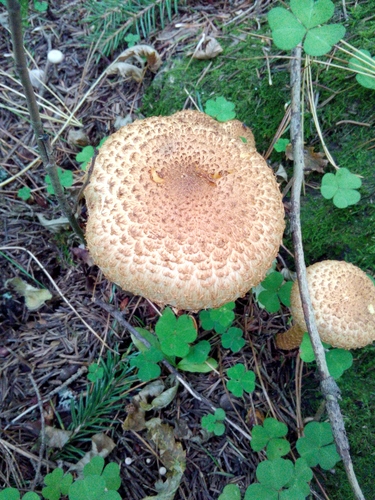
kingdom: Fungi
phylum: Basidiomycota
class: Agaricomycetes
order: Agaricales
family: Strophariaceae
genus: Pholiota
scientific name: Pholiota squarrosa
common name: Shaggy pholiota
